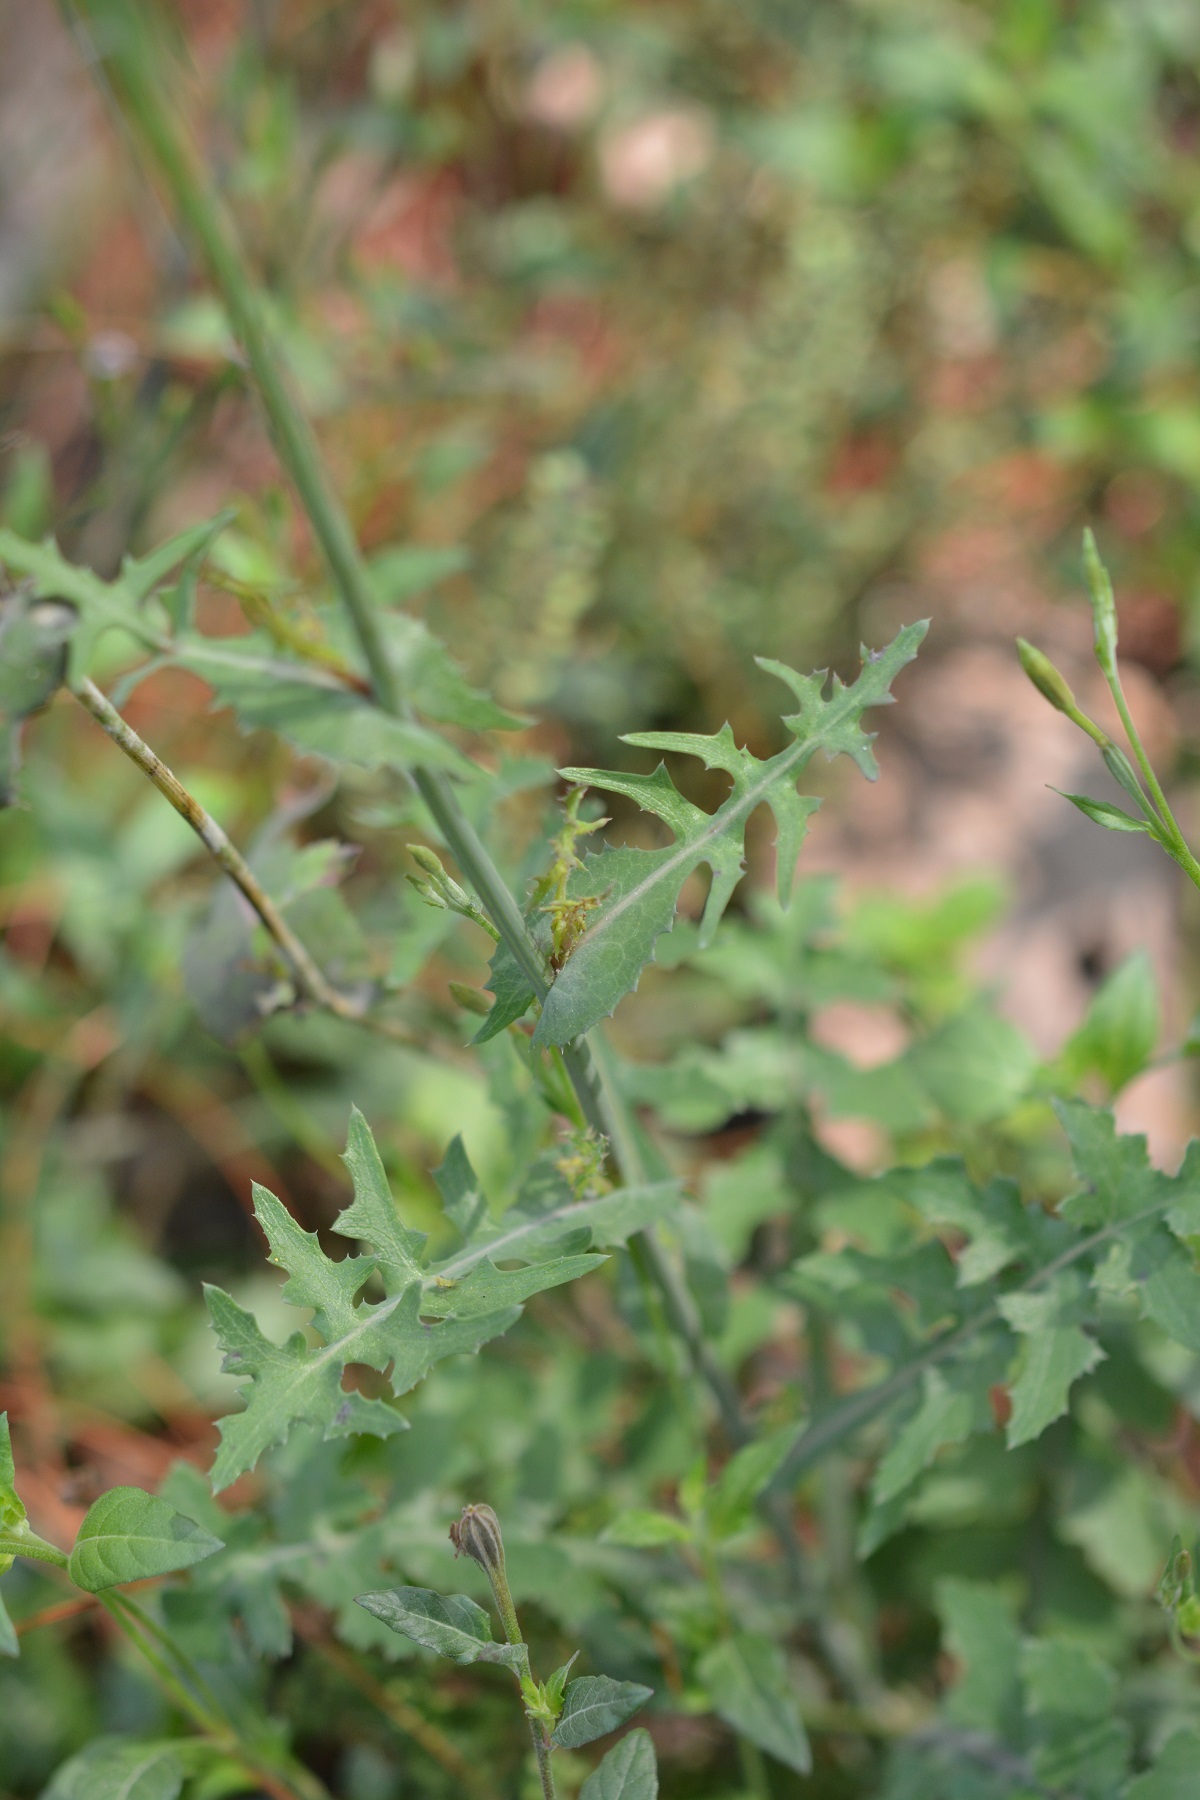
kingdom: Plantae
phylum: Tracheophyta
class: Magnoliopsida
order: Asterales
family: Asteraceae
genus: Sonchus
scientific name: Sonchus oleraceus
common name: Common sowthistle
